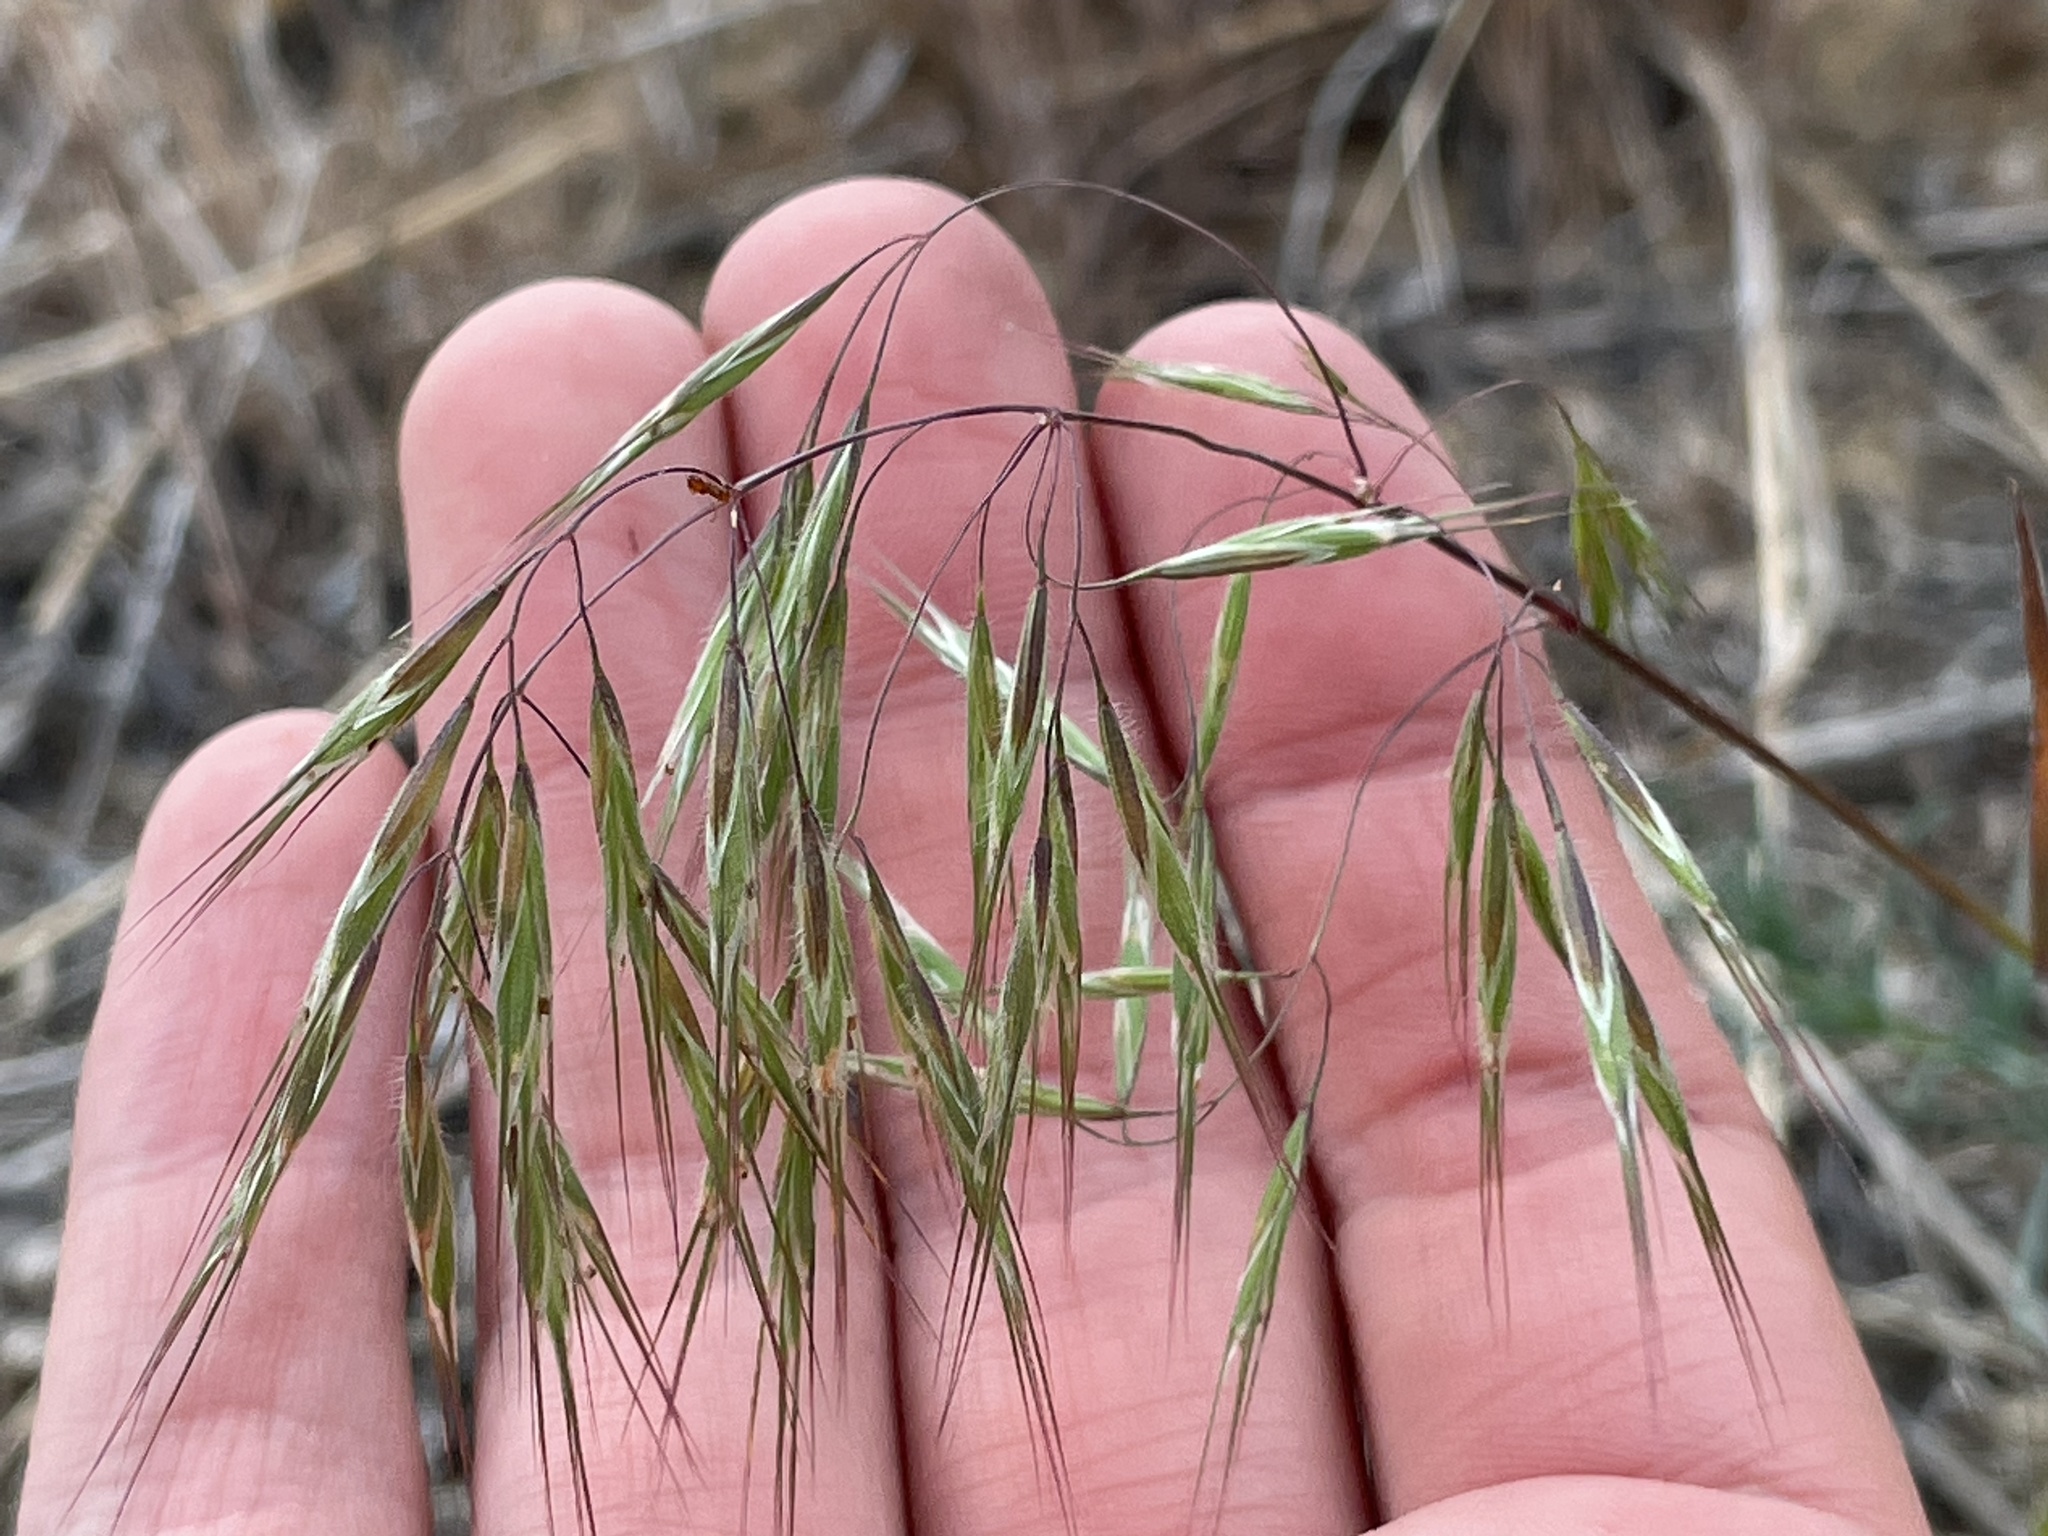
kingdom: Plantae
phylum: Tracheophyta
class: Liliopsida
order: Poales
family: Poaceae
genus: Bromus
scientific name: Bromus tectorum
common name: Cheatgrass
